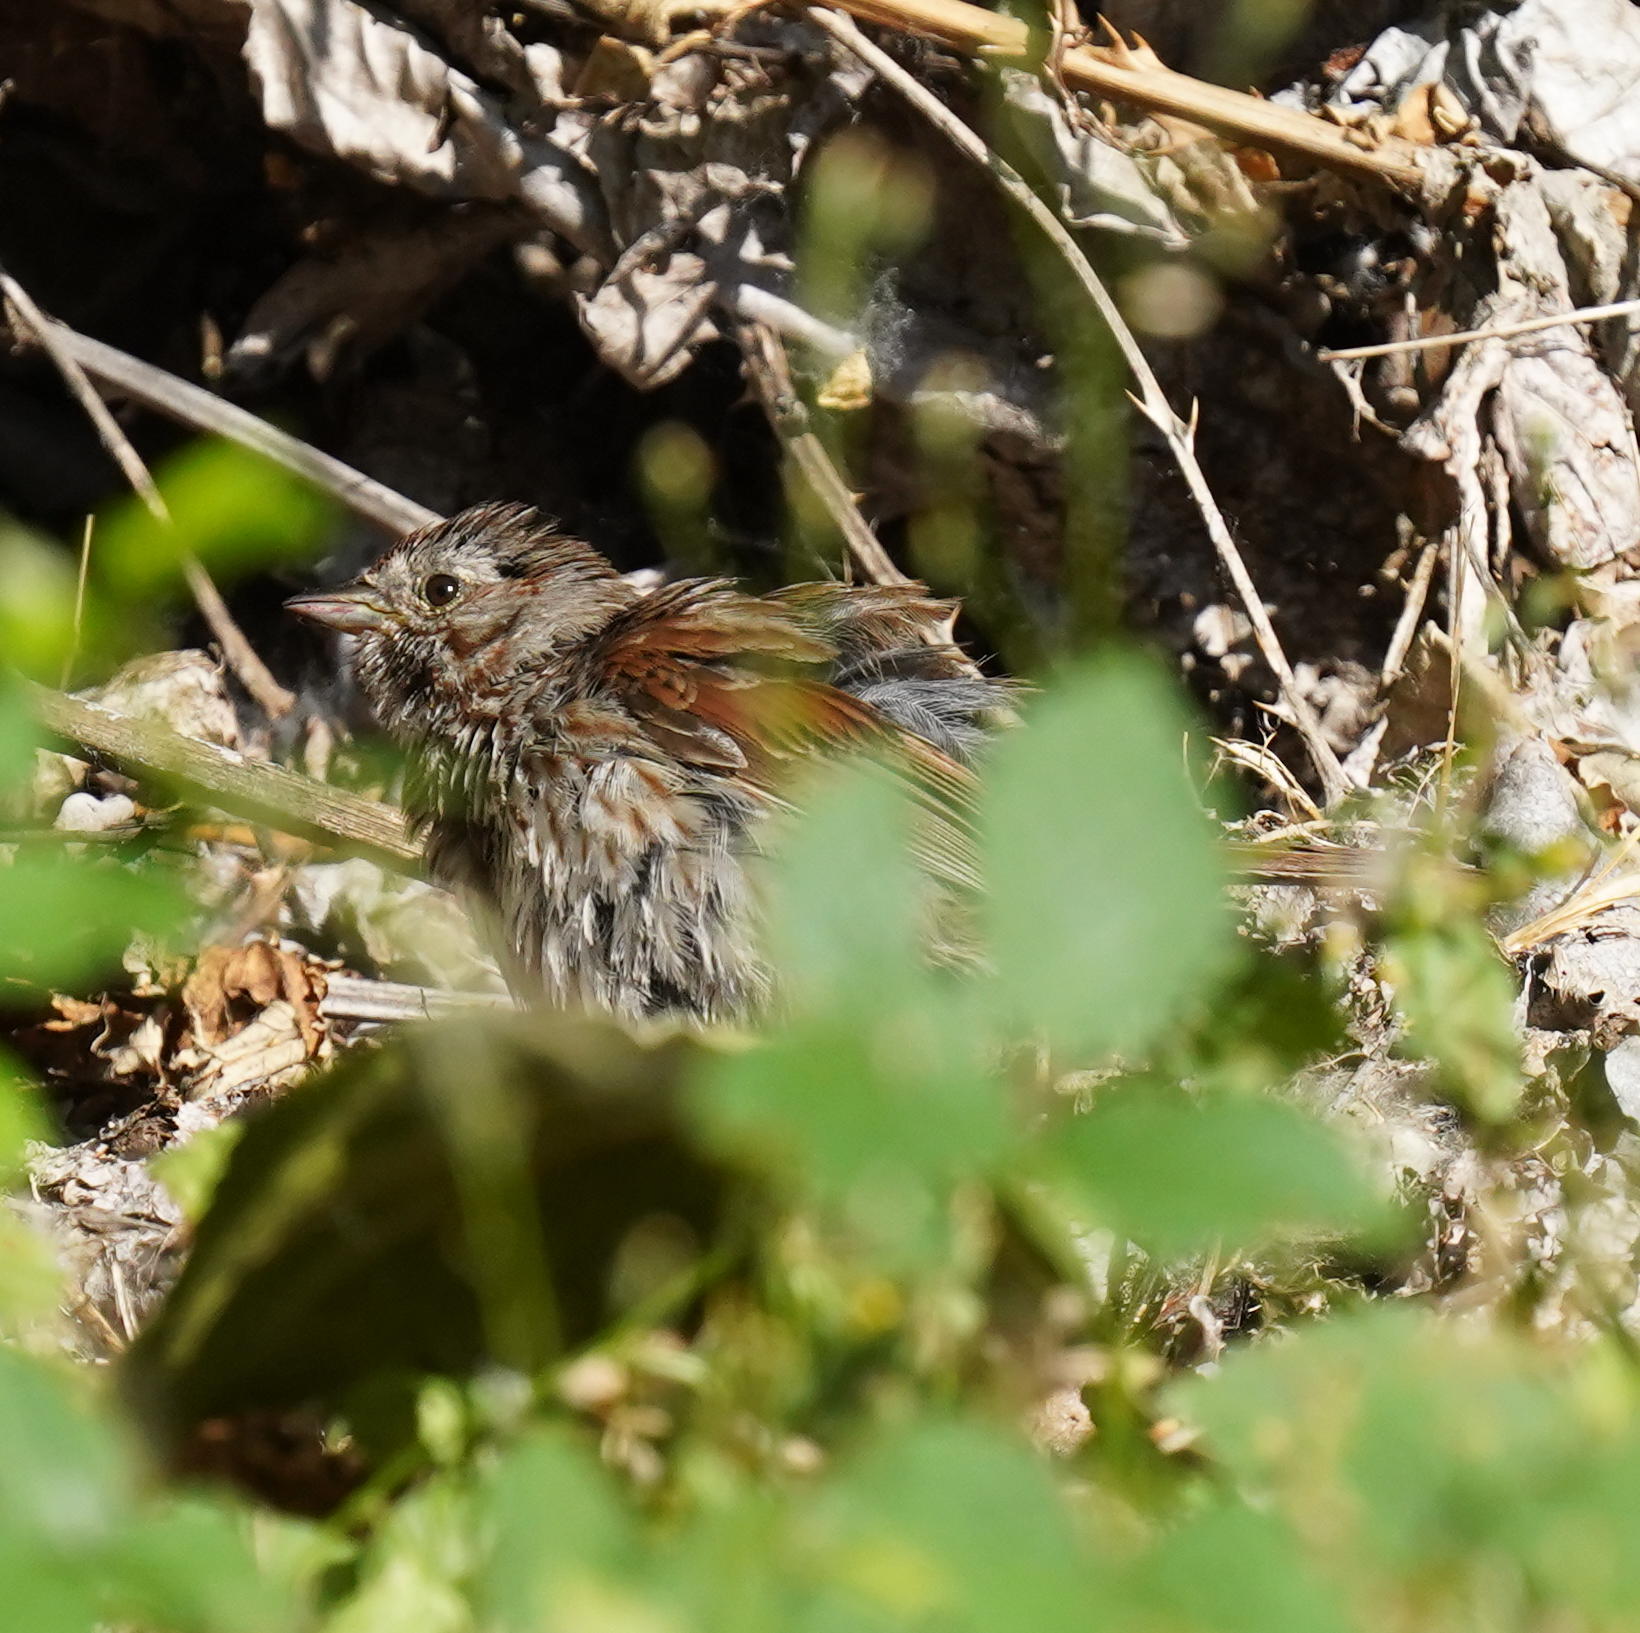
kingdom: Animalia
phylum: Chordata
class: Aves
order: Passeriformes
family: Passerellidae
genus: Melospiza
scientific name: Melospiza melodia
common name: Song sparrow
